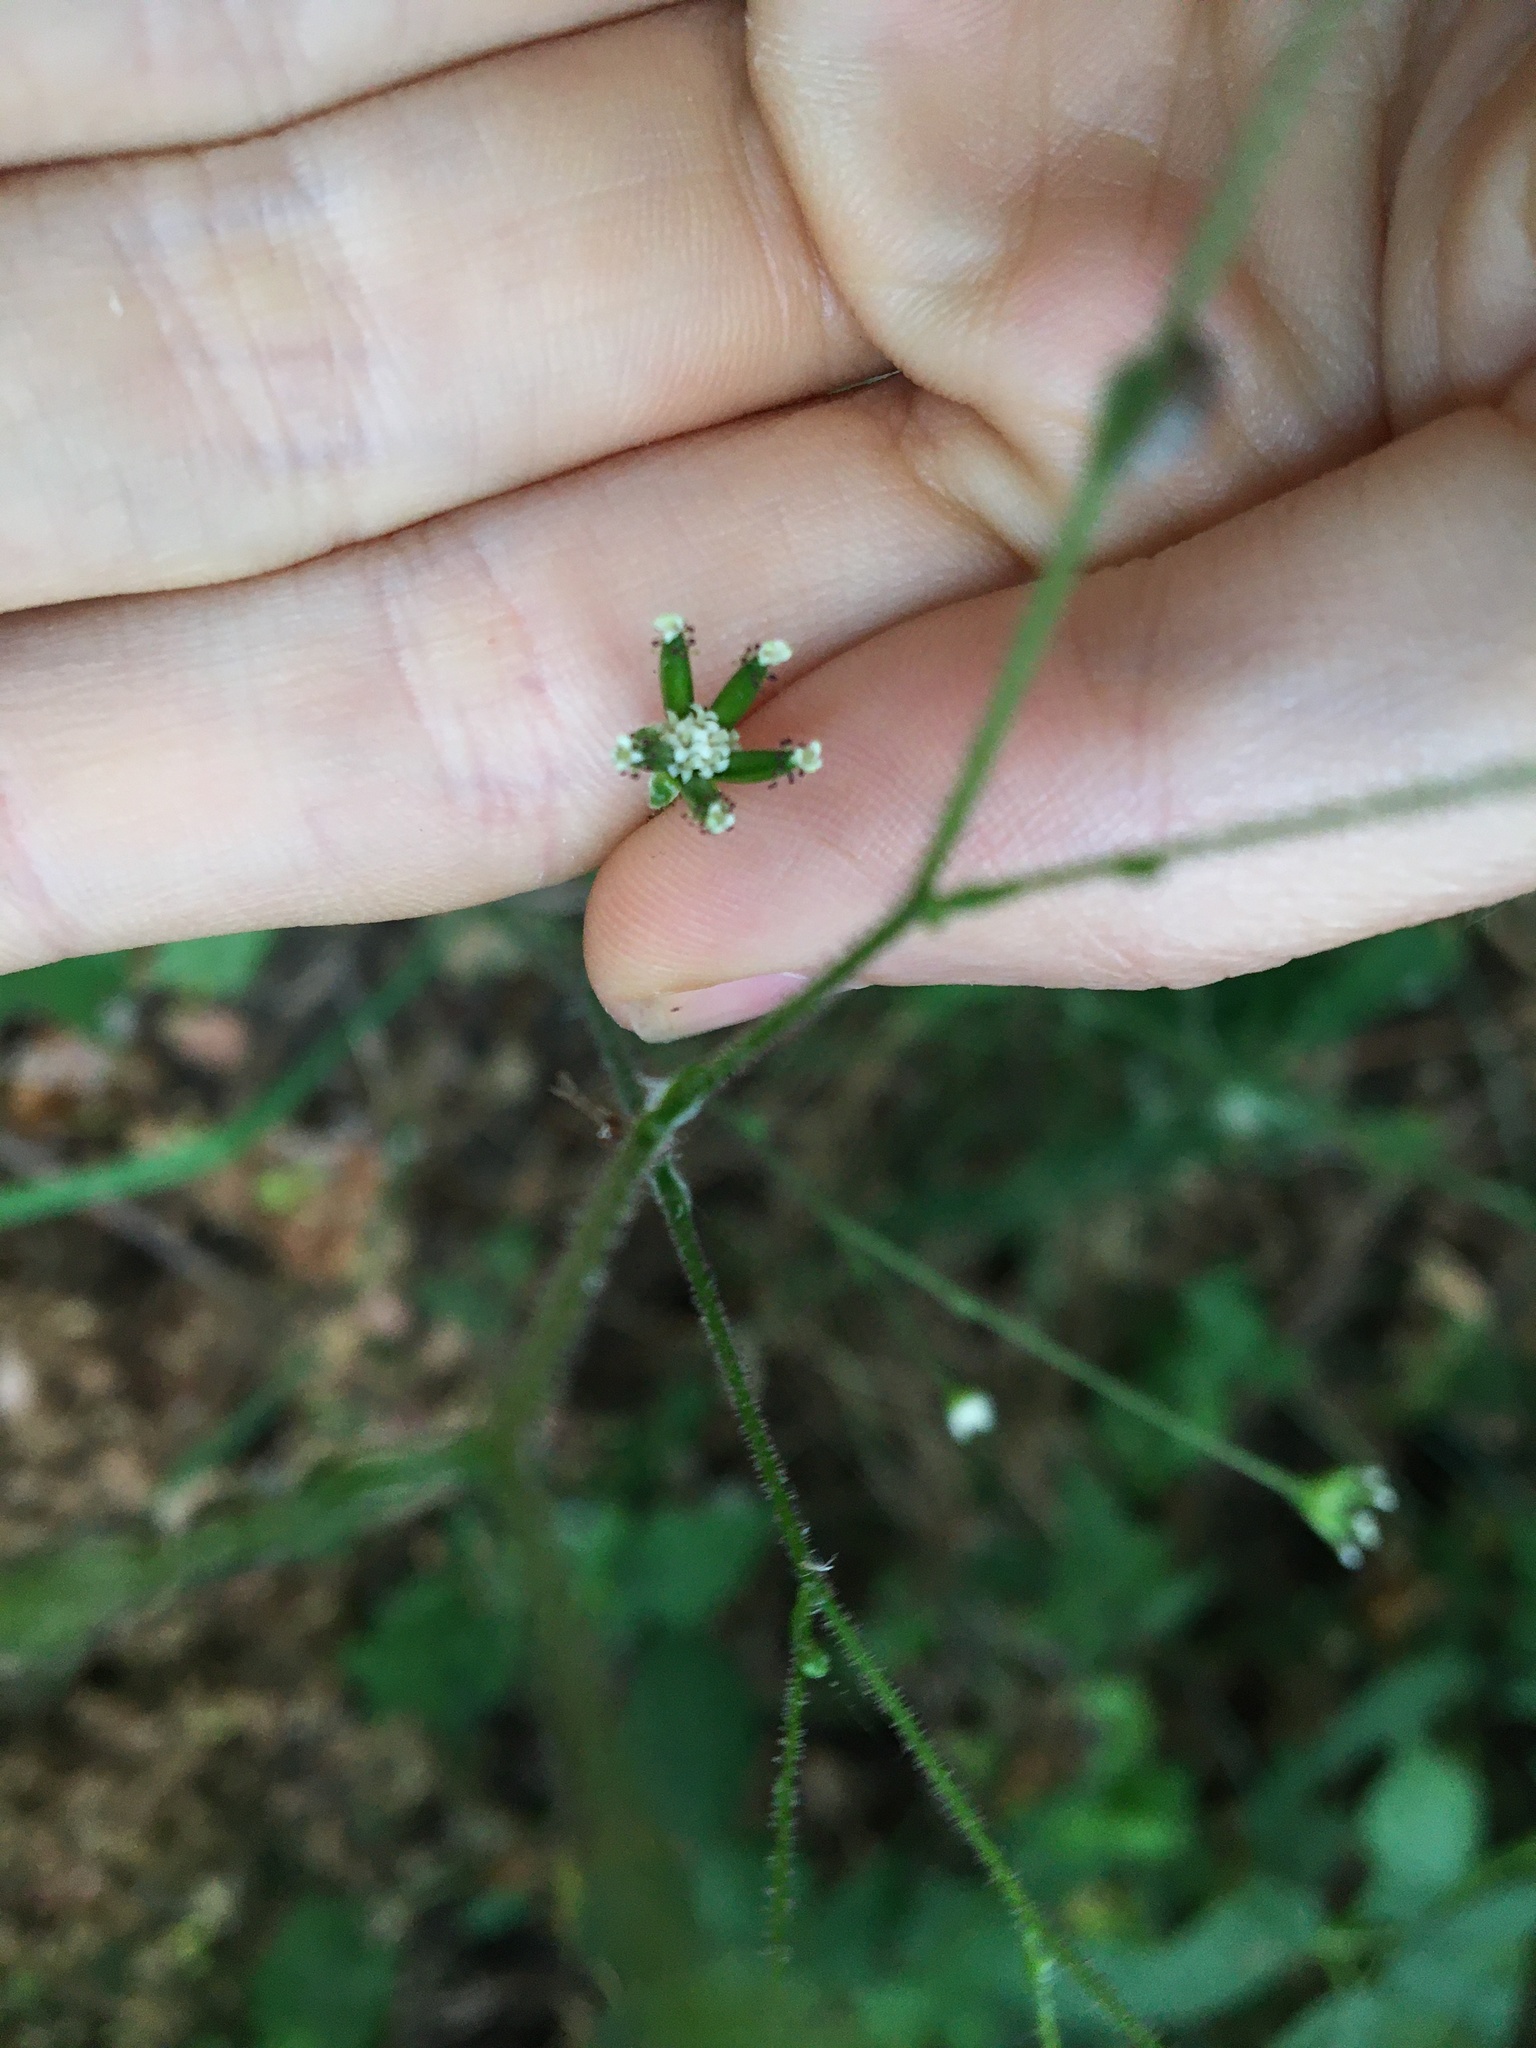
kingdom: Plantae
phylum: Tracheophyta
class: Magnoliopsida
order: Asterales
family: Asteraceae
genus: Adenocaulon
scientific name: Adenocaulon bicolor
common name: Trailplant
